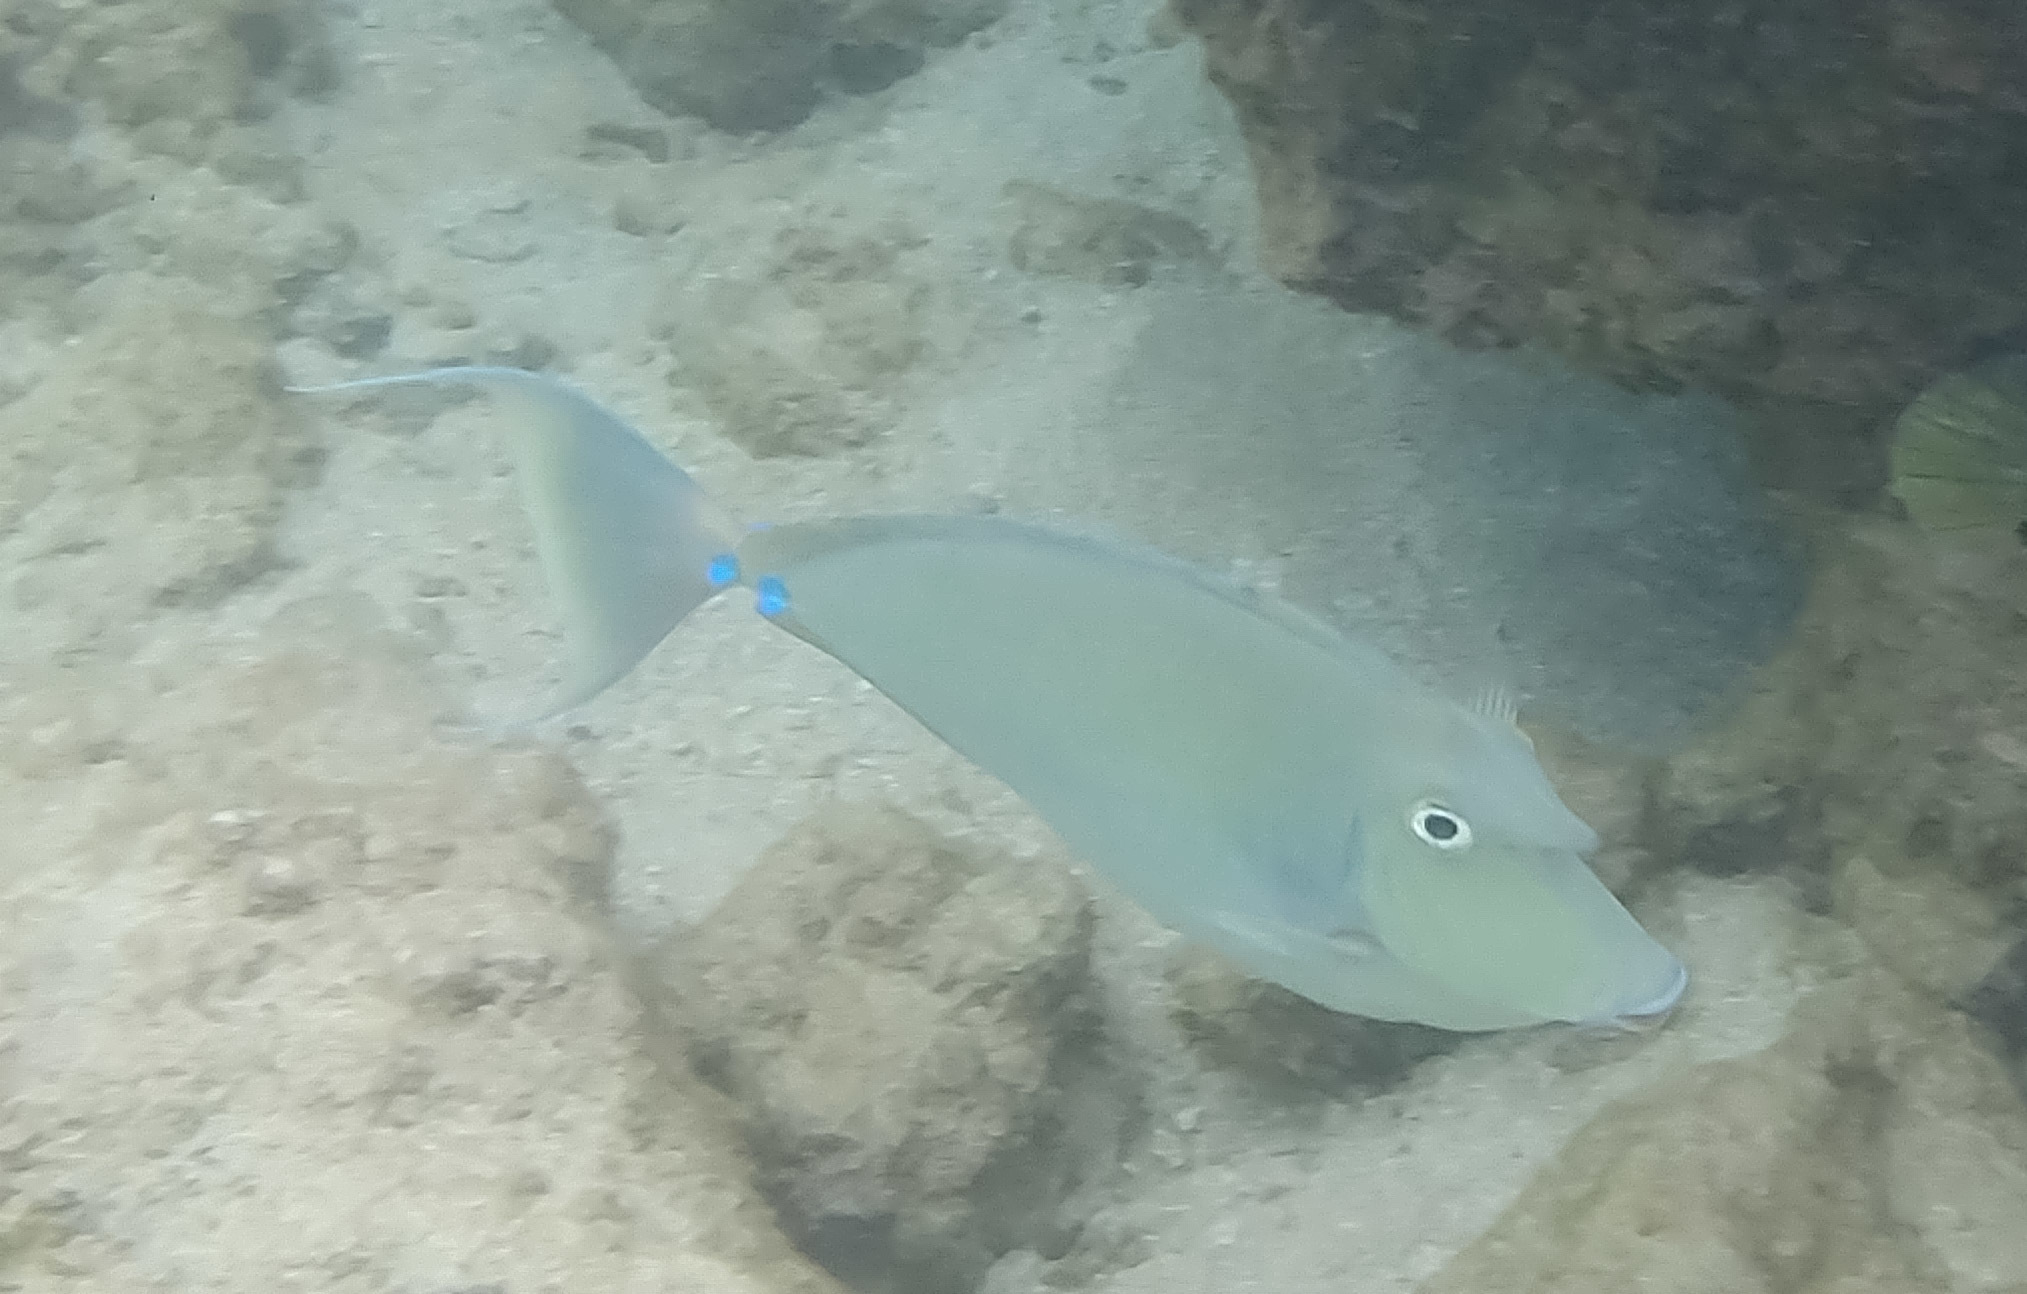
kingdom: Animalia
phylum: Chordata
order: Perciformes
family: Acanthuridae
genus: Naso
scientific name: Naso unicornis
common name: Bluespine unicornfish
